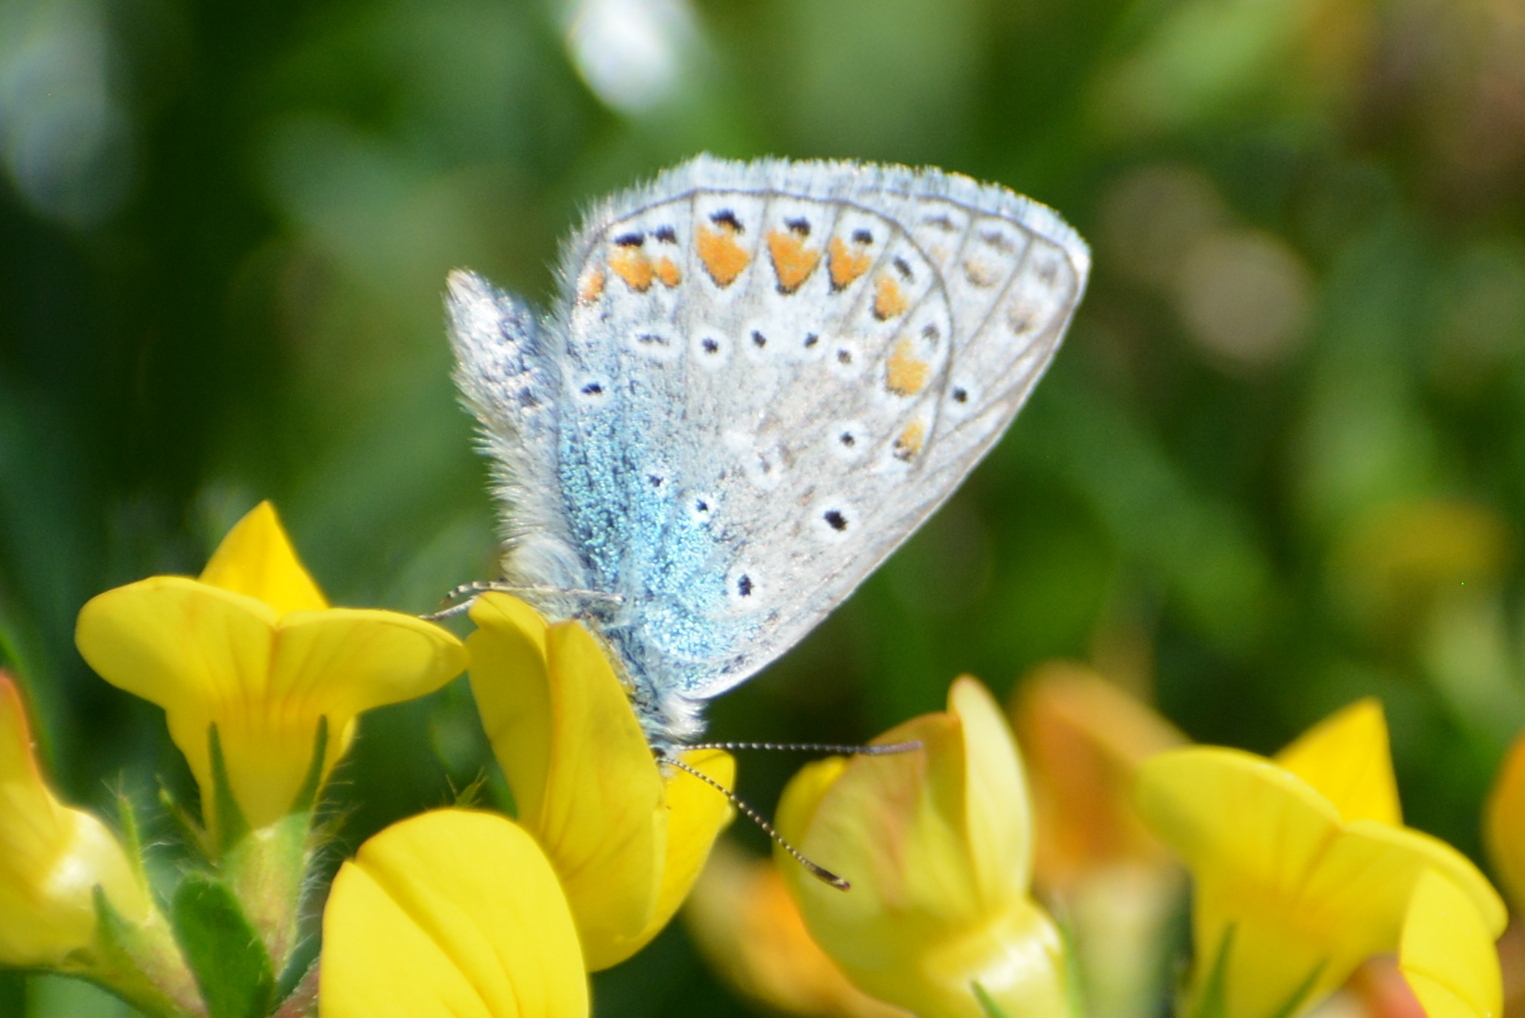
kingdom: Animalia
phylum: Arthropoda
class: Insecta
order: Lepidoptera
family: Lycaenidae
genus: Polyommatus
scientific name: Polyommatus icarus
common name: Common blue
